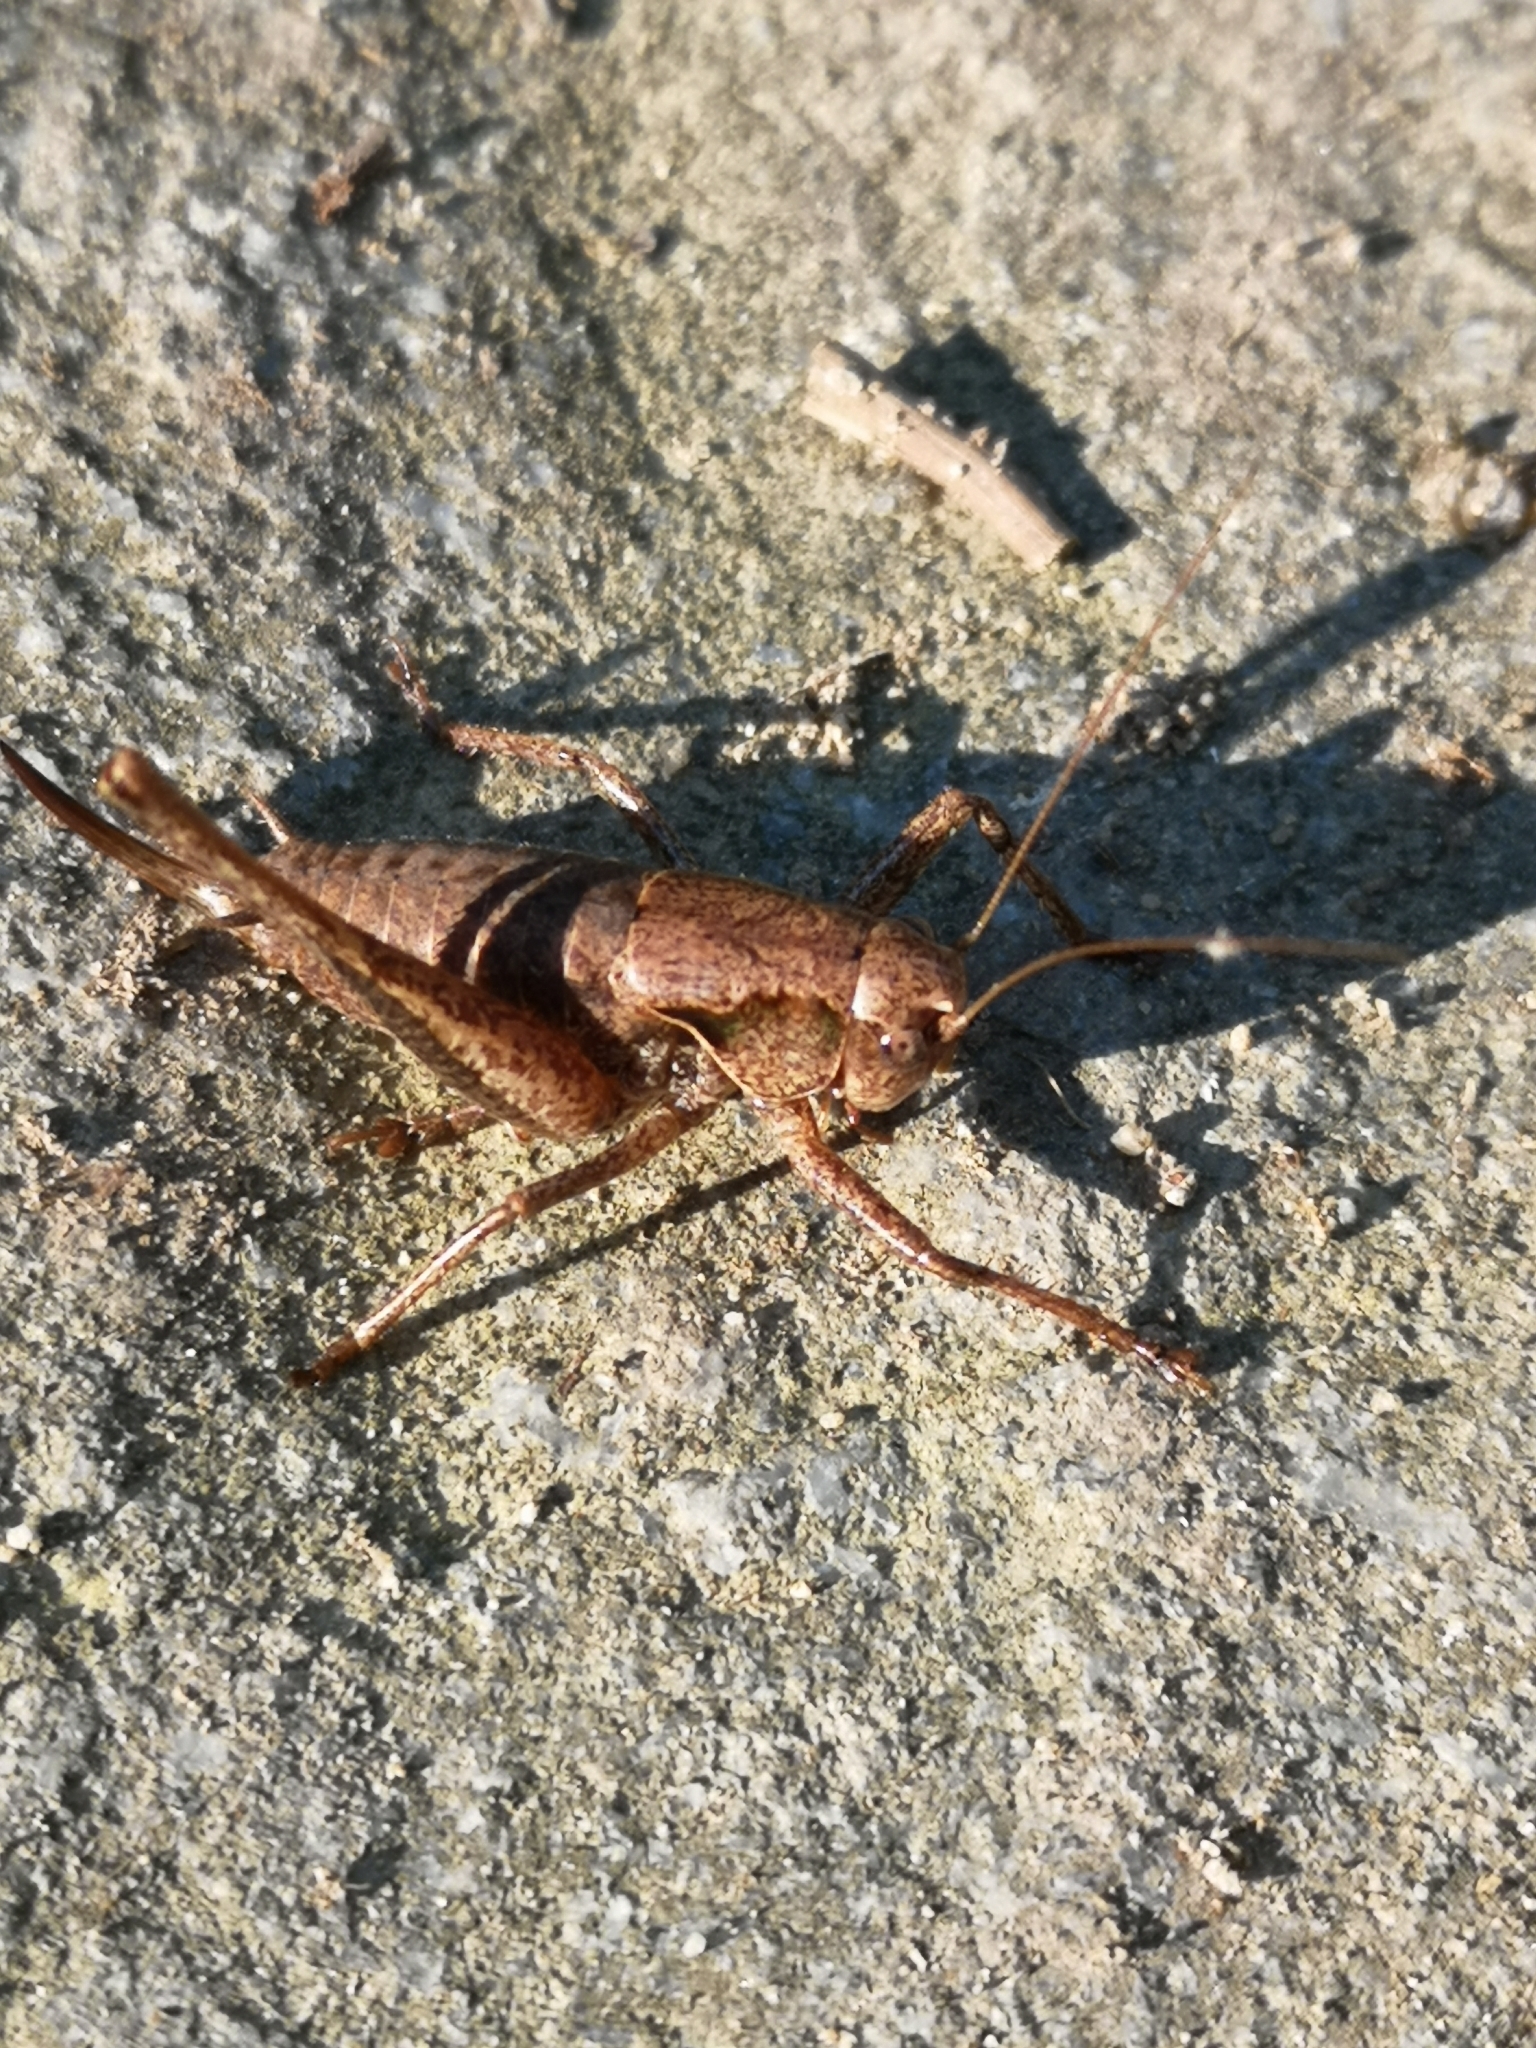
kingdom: Animalia
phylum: Arthropoda
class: Insecta
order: Orthoptera
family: Tettigoniidae
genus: Pholidoptera
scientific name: Pholidoptera griseoaptera
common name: Dark bush-cricket
